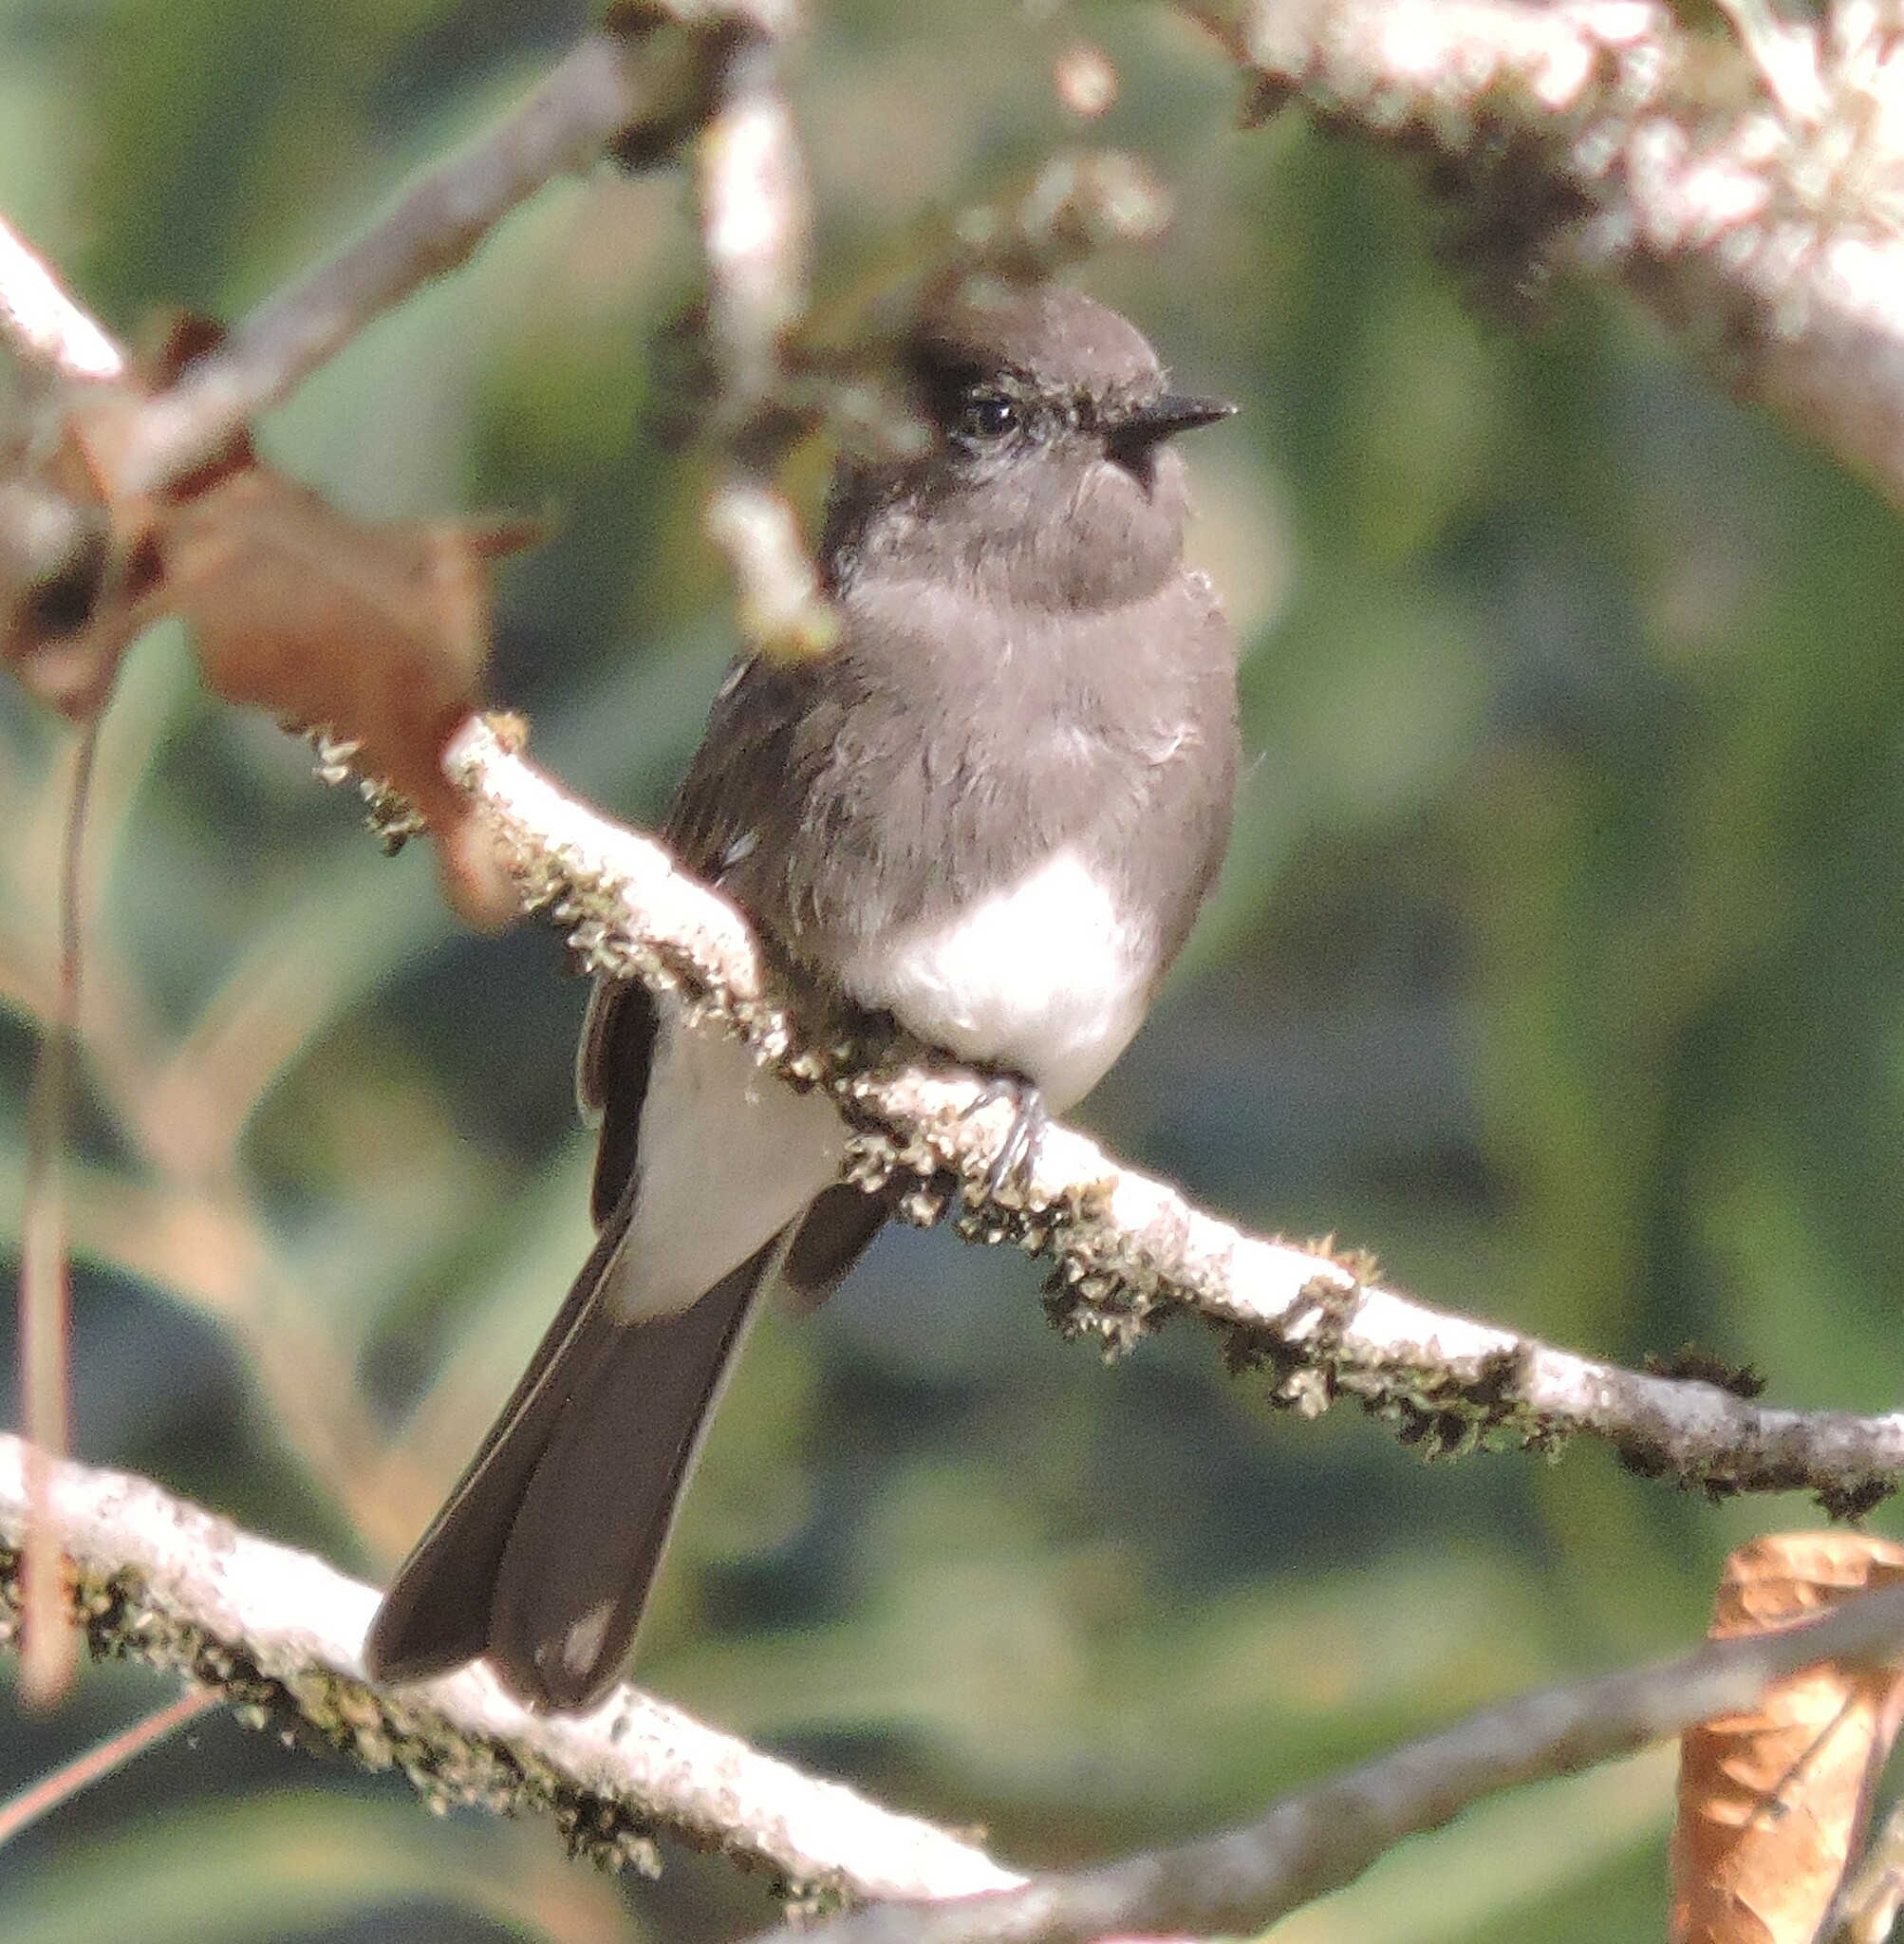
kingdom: Animalia
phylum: Chordata
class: Aves
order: Passeriformes
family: Tyrannidae
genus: Sayornis
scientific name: Sayornis nigricans
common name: Black phoebe
